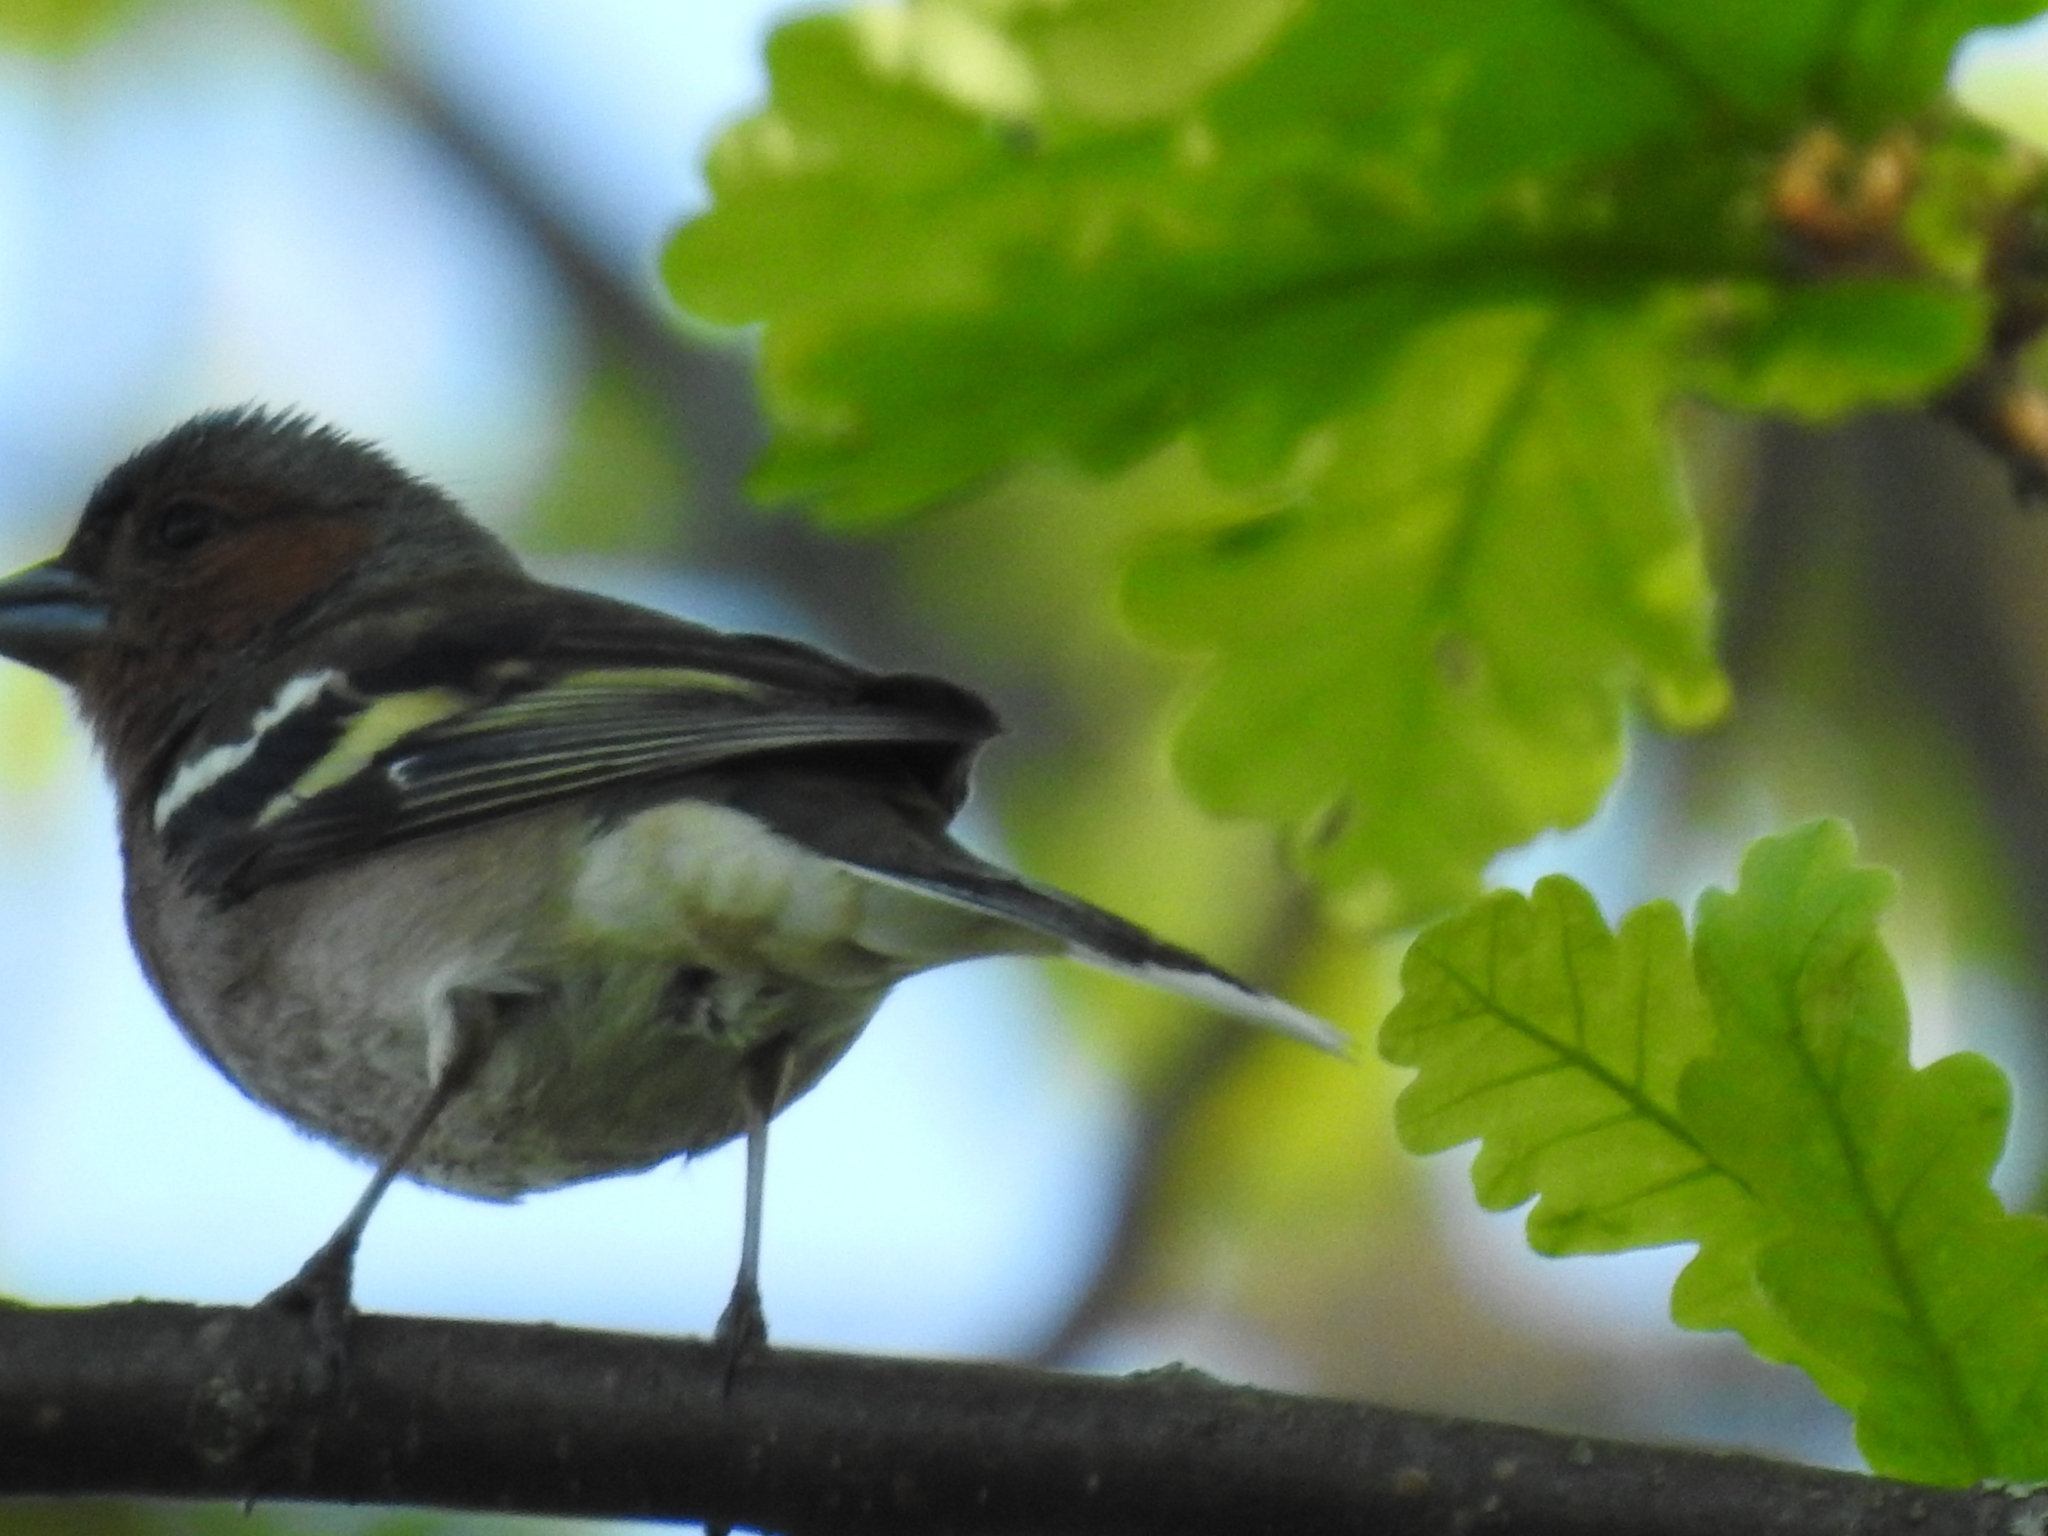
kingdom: Animalia
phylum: Chordata
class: Aves
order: Passeriformes
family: Fringillidae
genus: Fringilla
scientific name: Fringilla coelebs
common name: Common chaffinch
